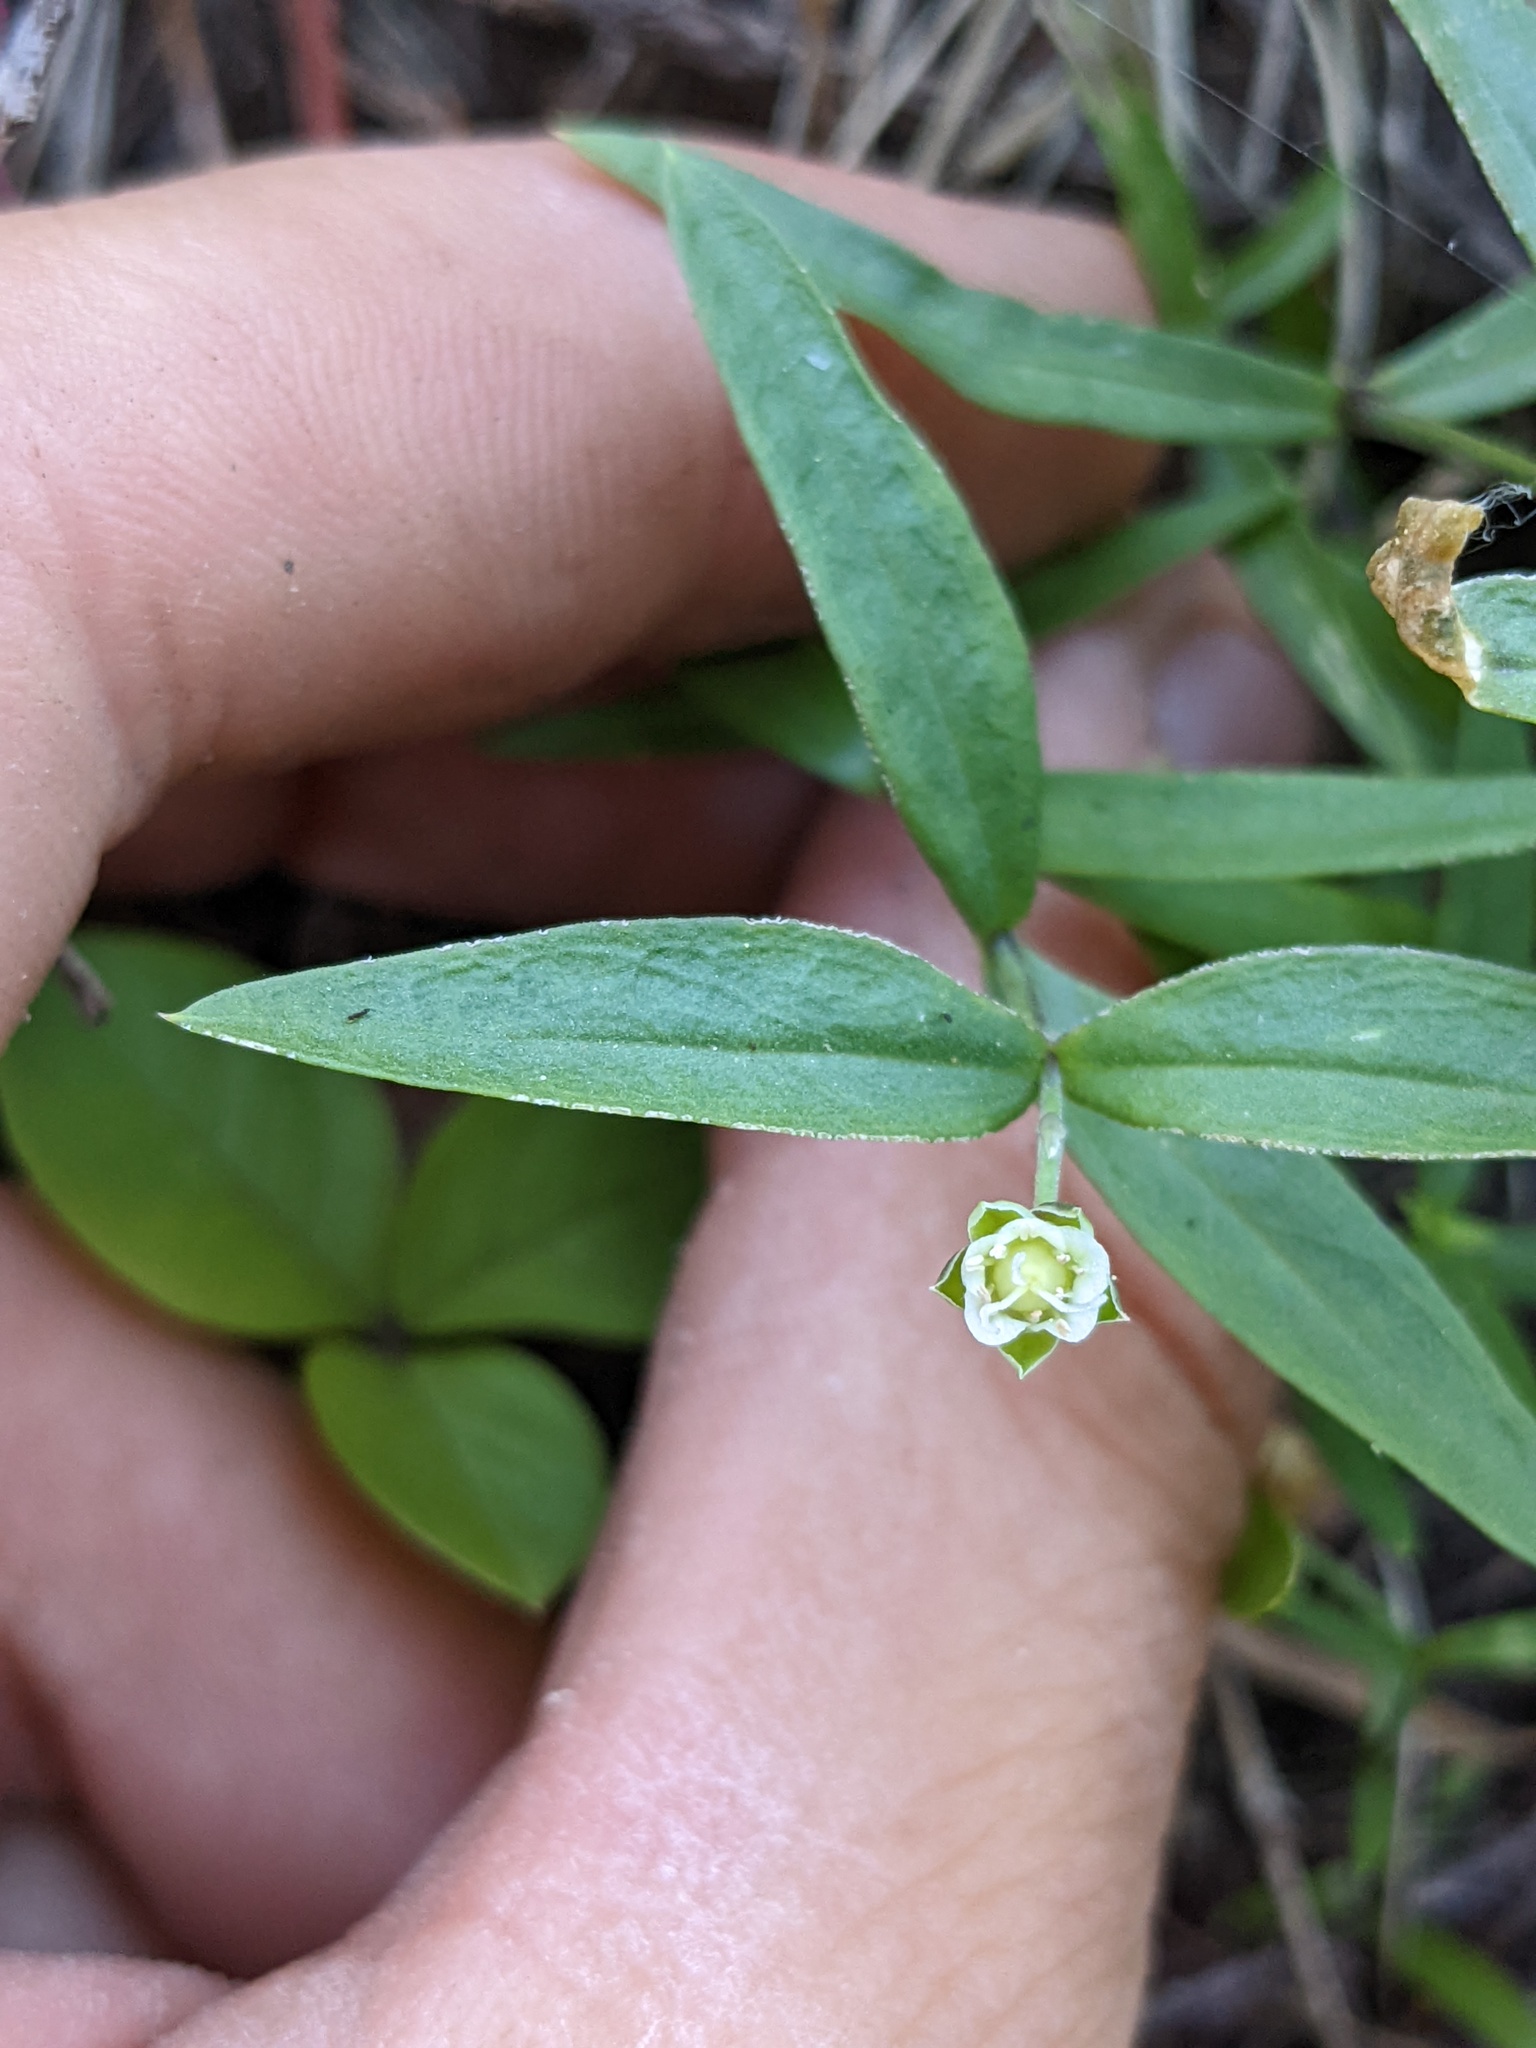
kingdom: Plantae
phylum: Tracheophyta
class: Magnoliopsida
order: Caryophyllales
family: Caryophyllaceae
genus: Moehringia
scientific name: Moehringia macrophylla
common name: Big-leaf sandwort
